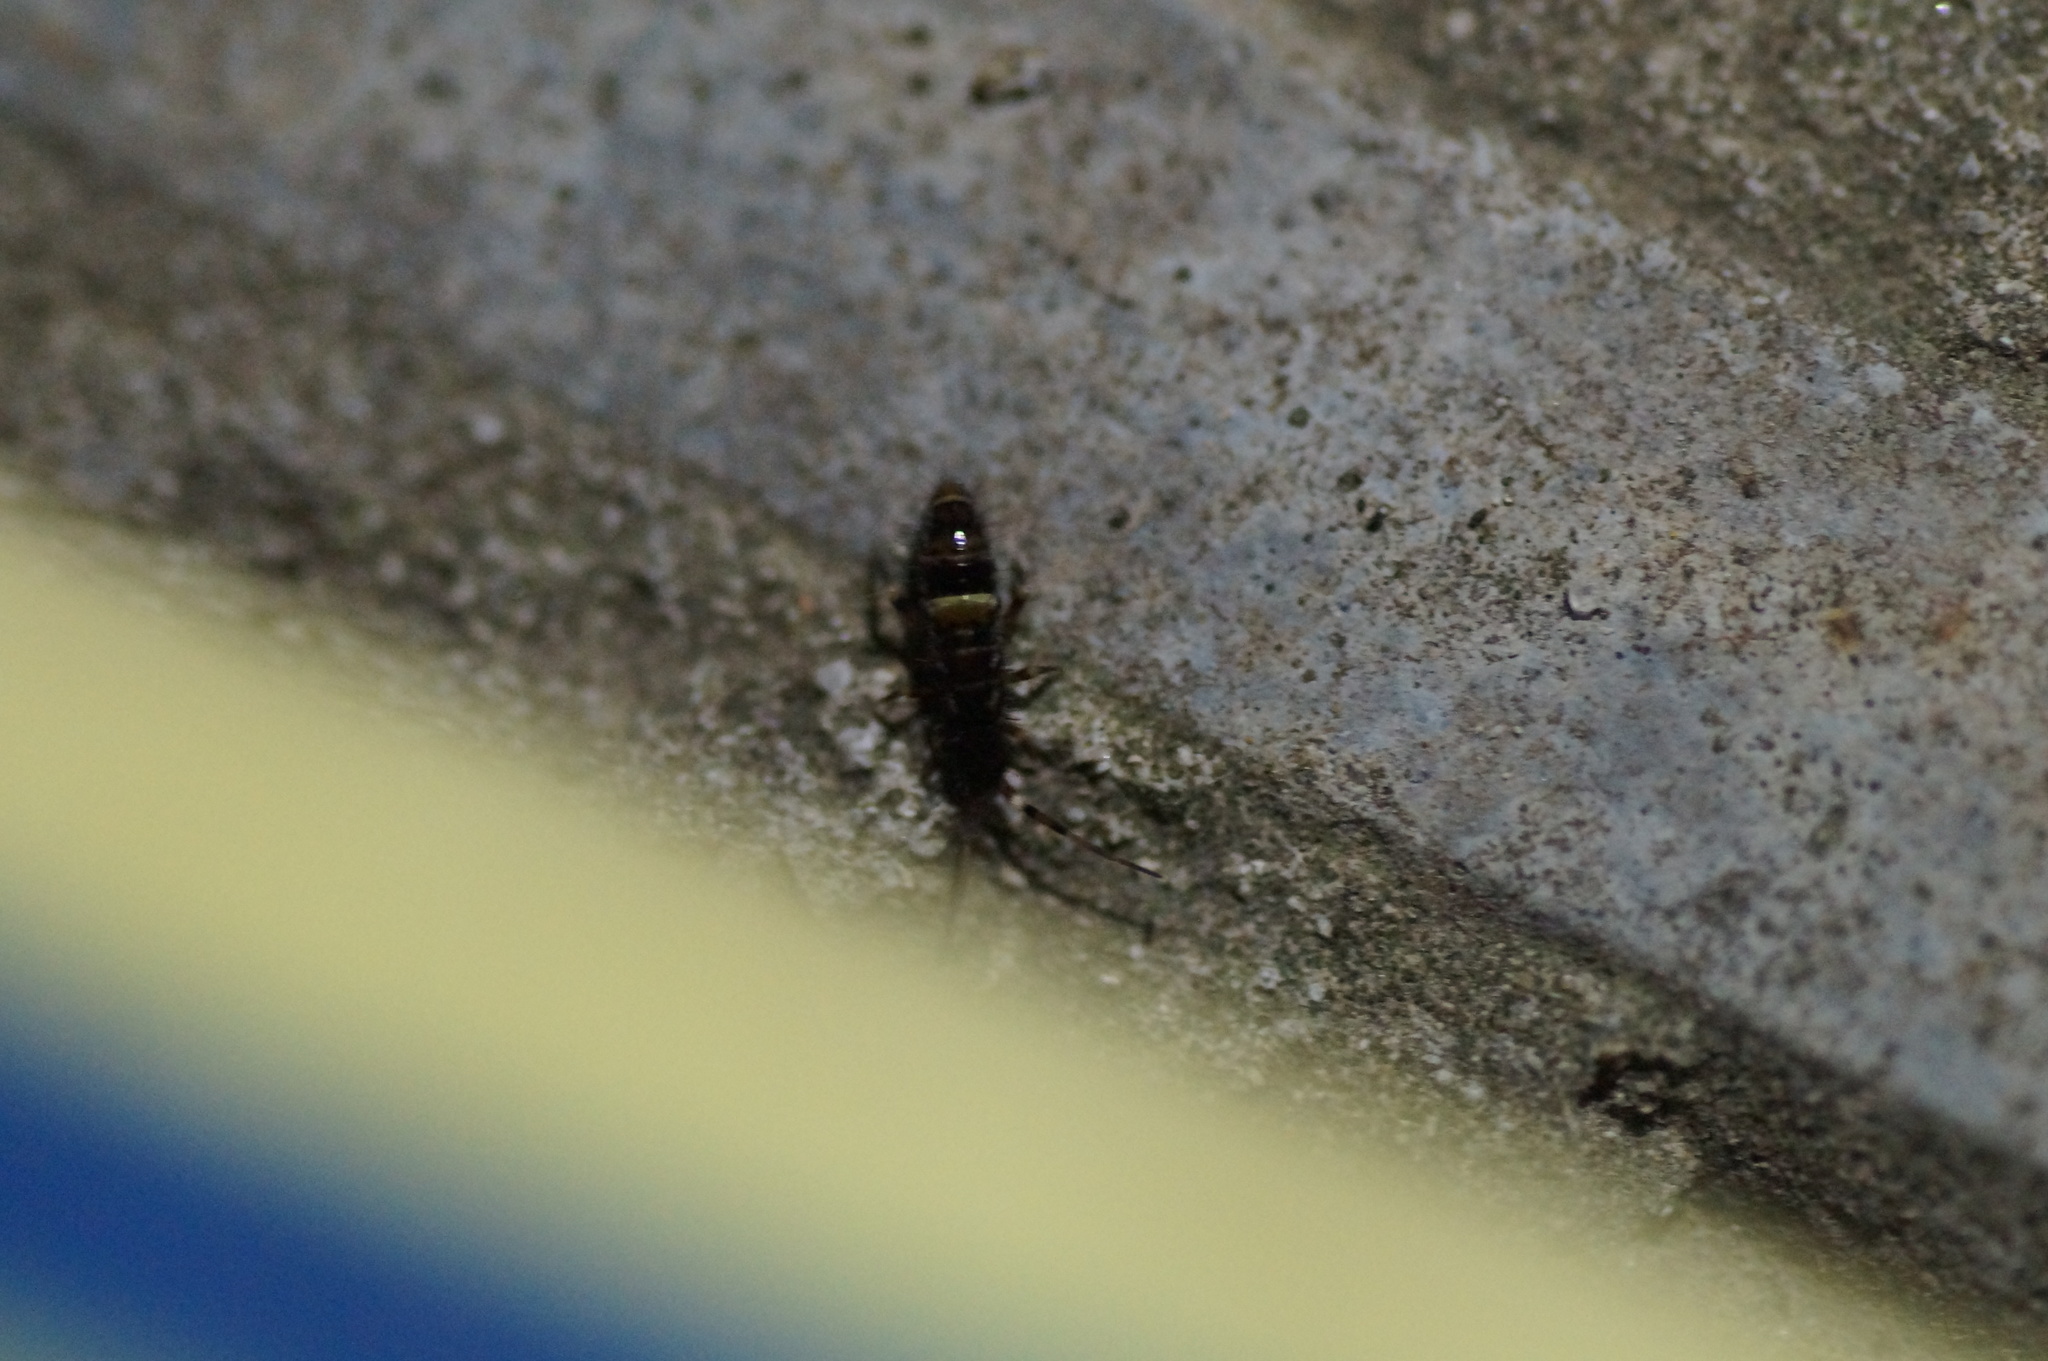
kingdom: Animalia
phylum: Arthropoda
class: Collembola
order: Entomobryomorpha
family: Orchesellidae
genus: Orchesella
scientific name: Orchesella cincta
